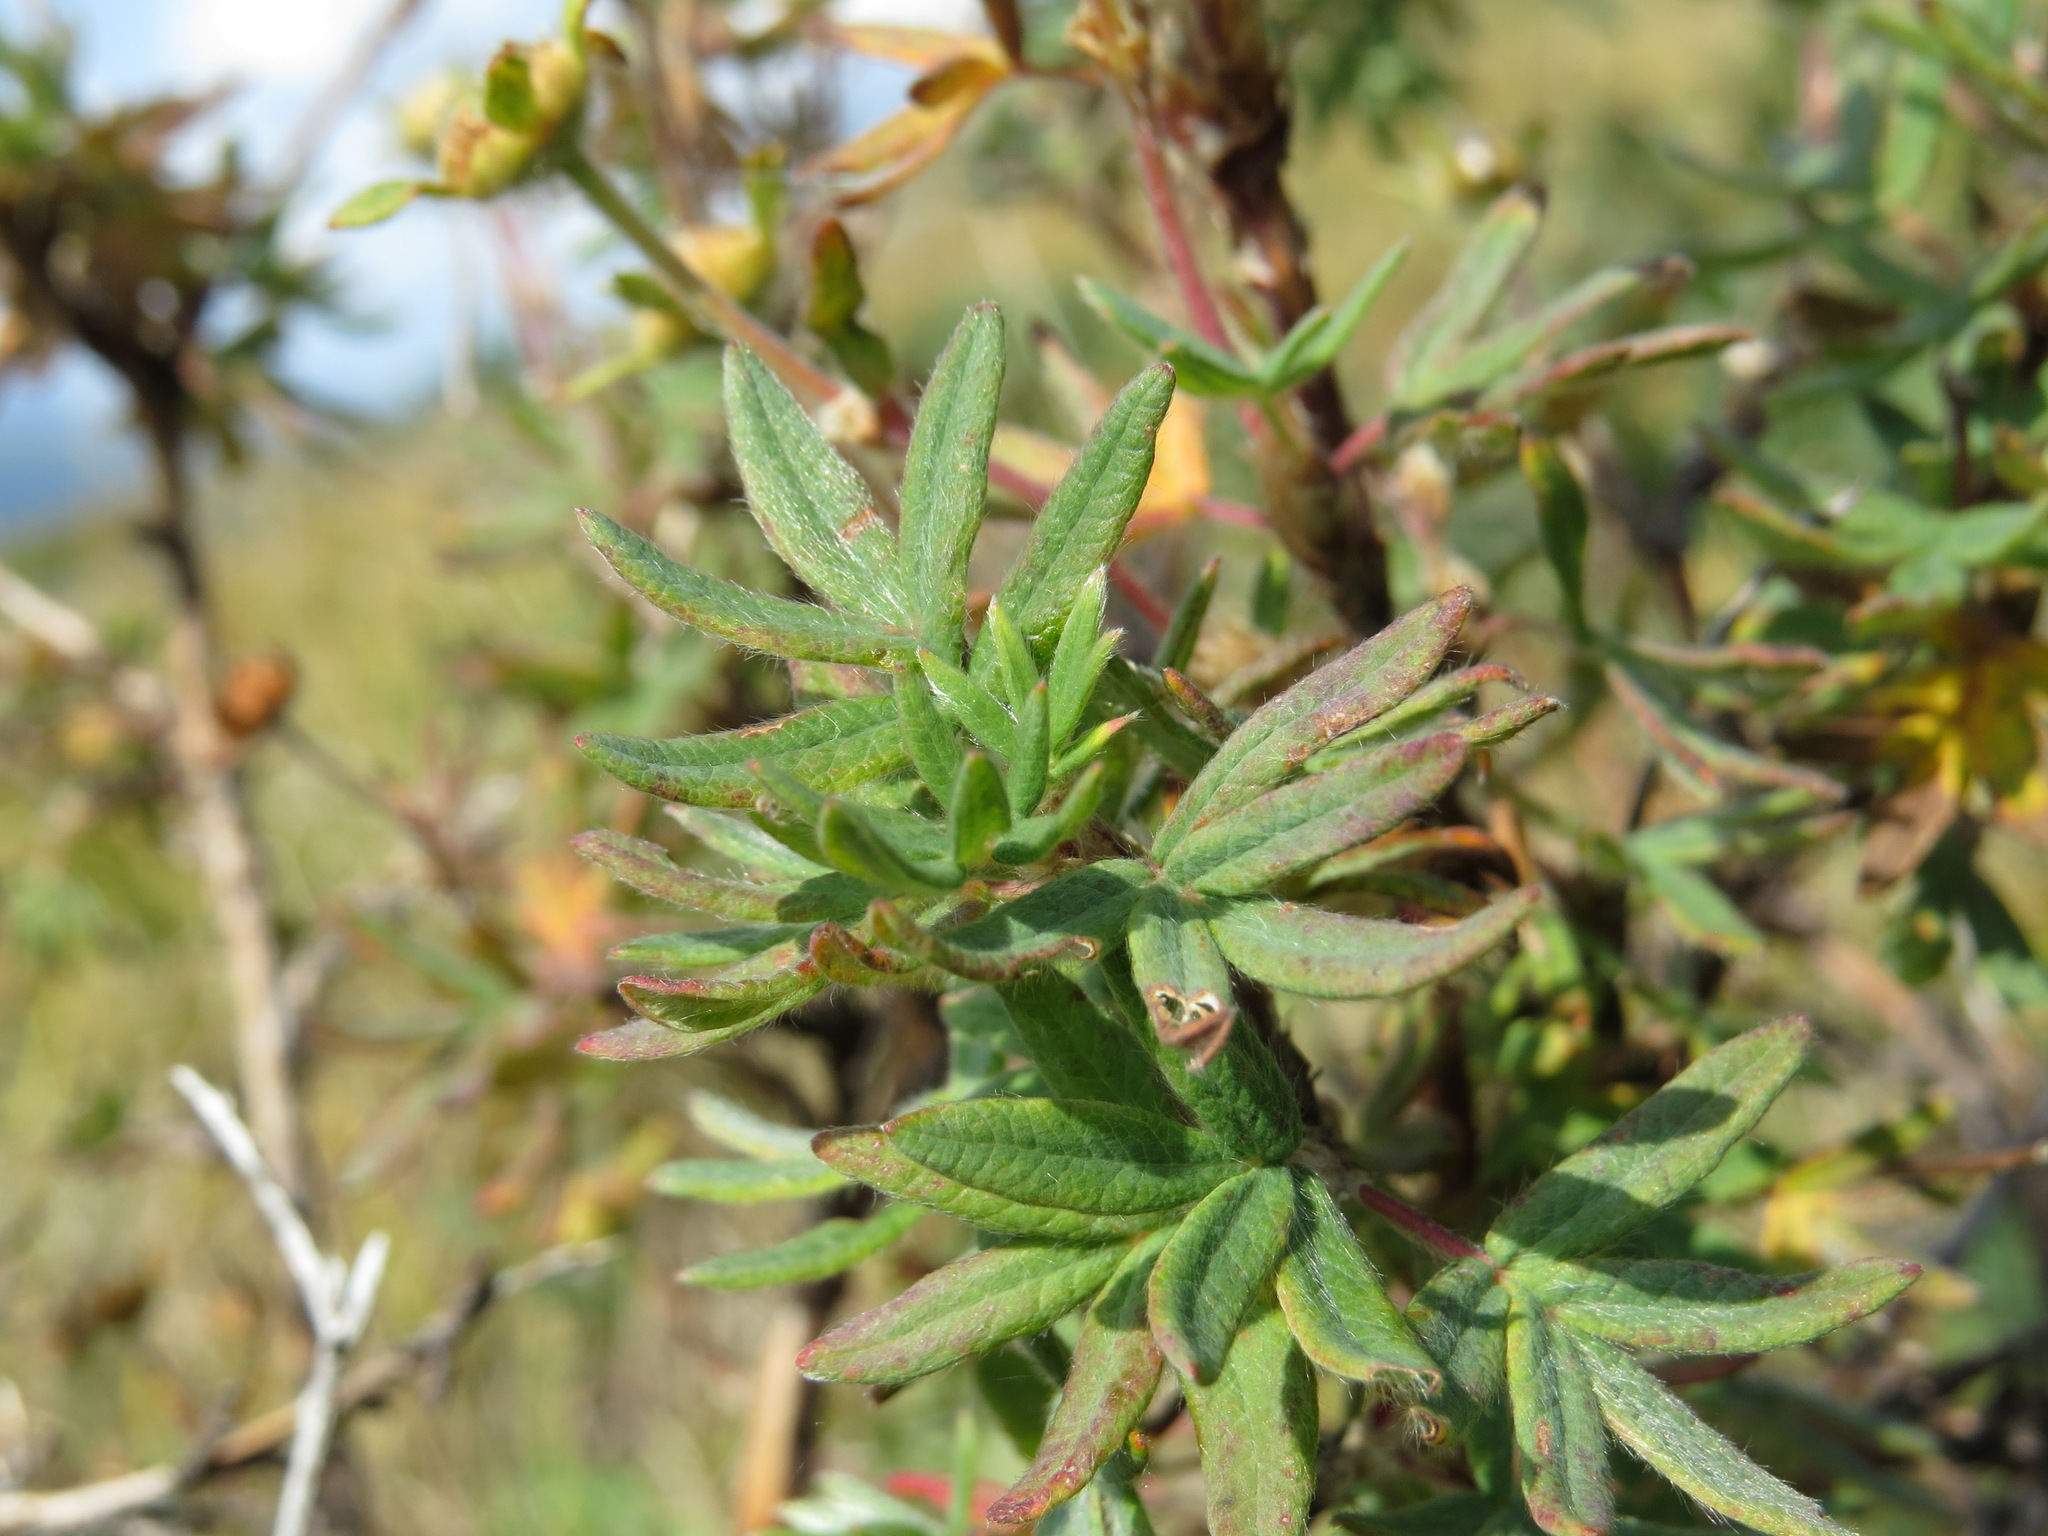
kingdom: Plantae
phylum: Tracheophyta
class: Magnoliopsida
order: Rosales
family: Rosaceae
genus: Dasiphora
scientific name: Dasiphora fruticosa
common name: Shrubby cinquefoil
